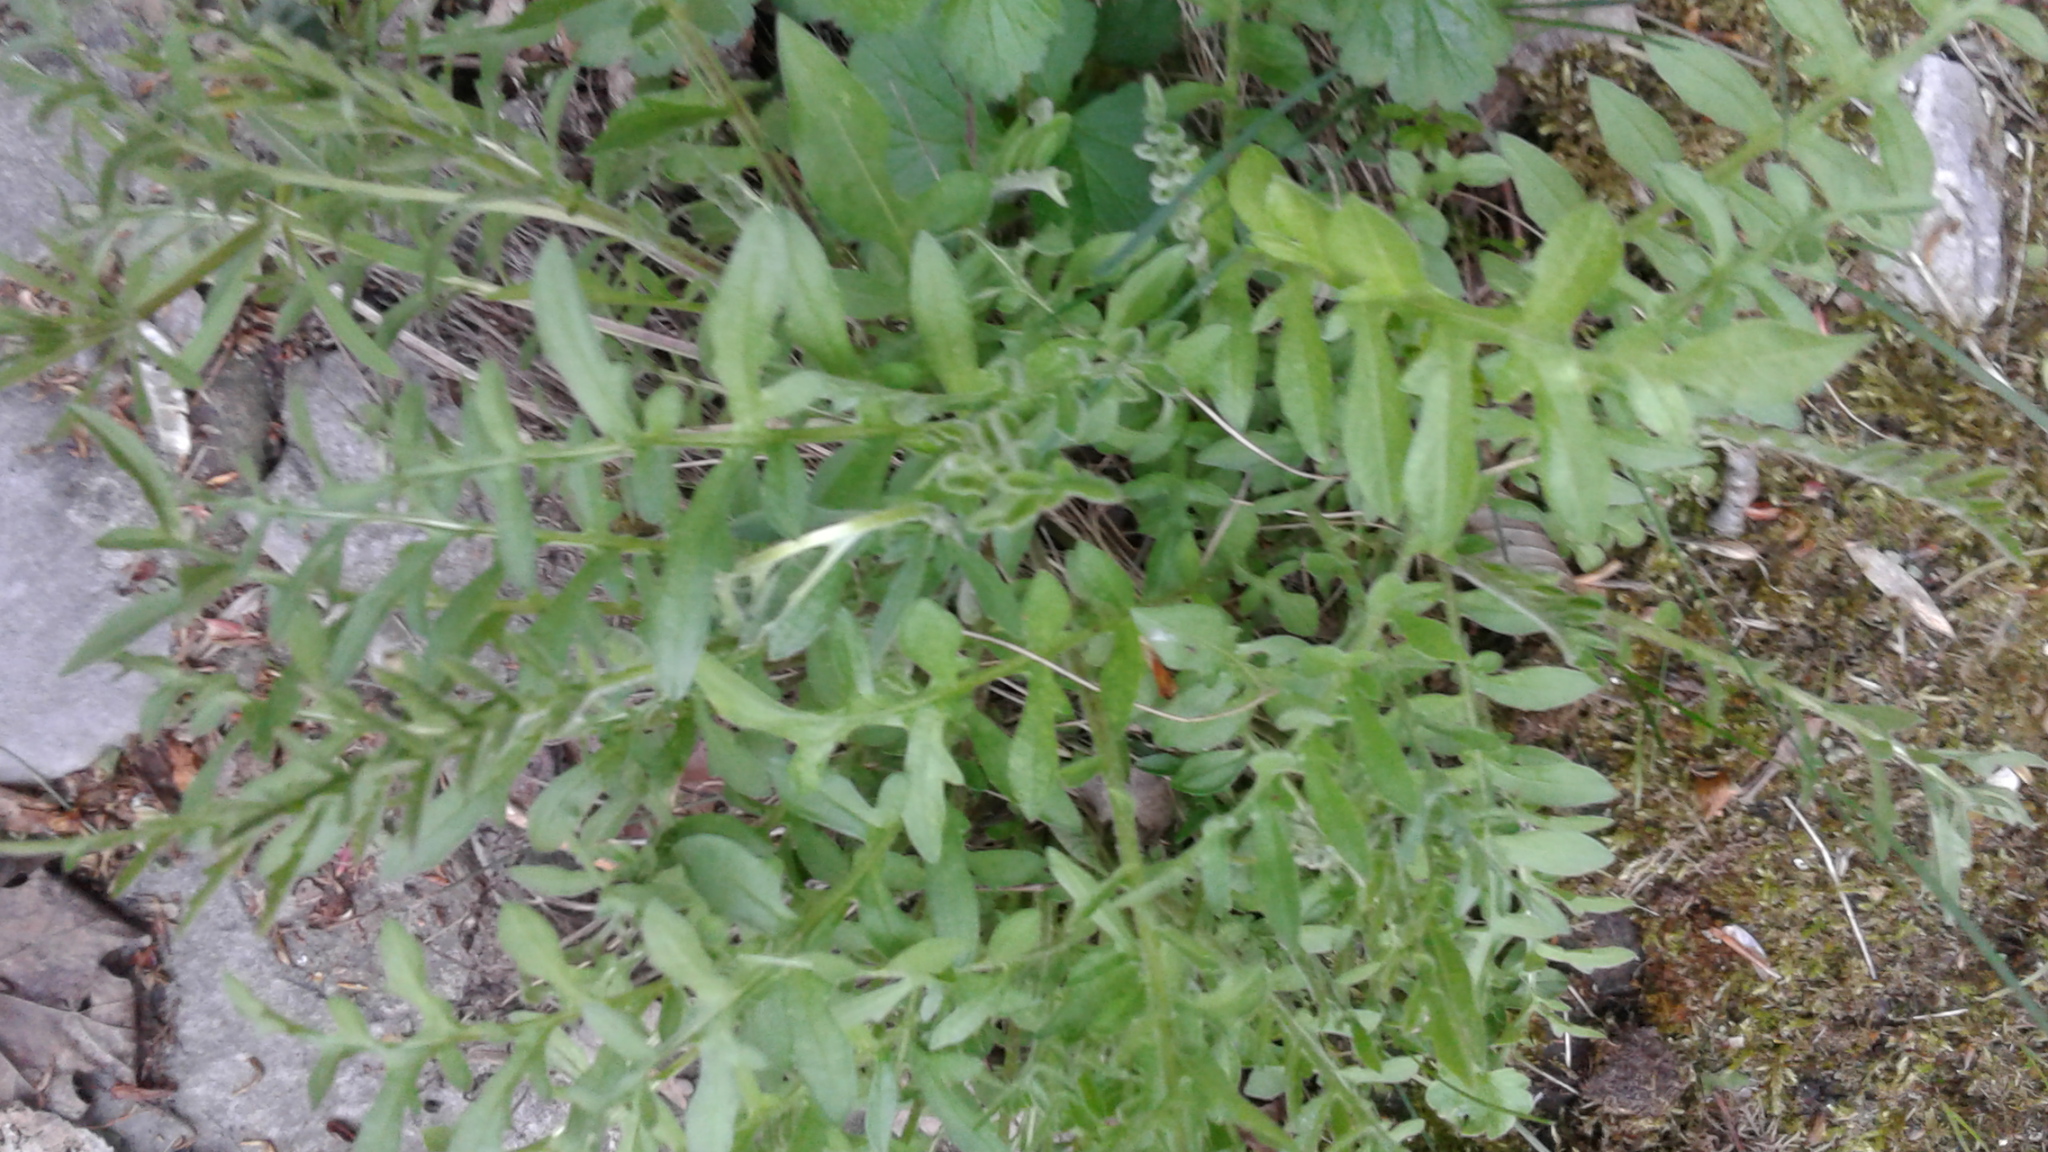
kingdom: Plantae
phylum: Tracheophyta
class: Magnoliopsida
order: Asterales
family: Asteraceae
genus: Centaurea
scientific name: Centaurea scabiosa
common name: Greater knapweed
